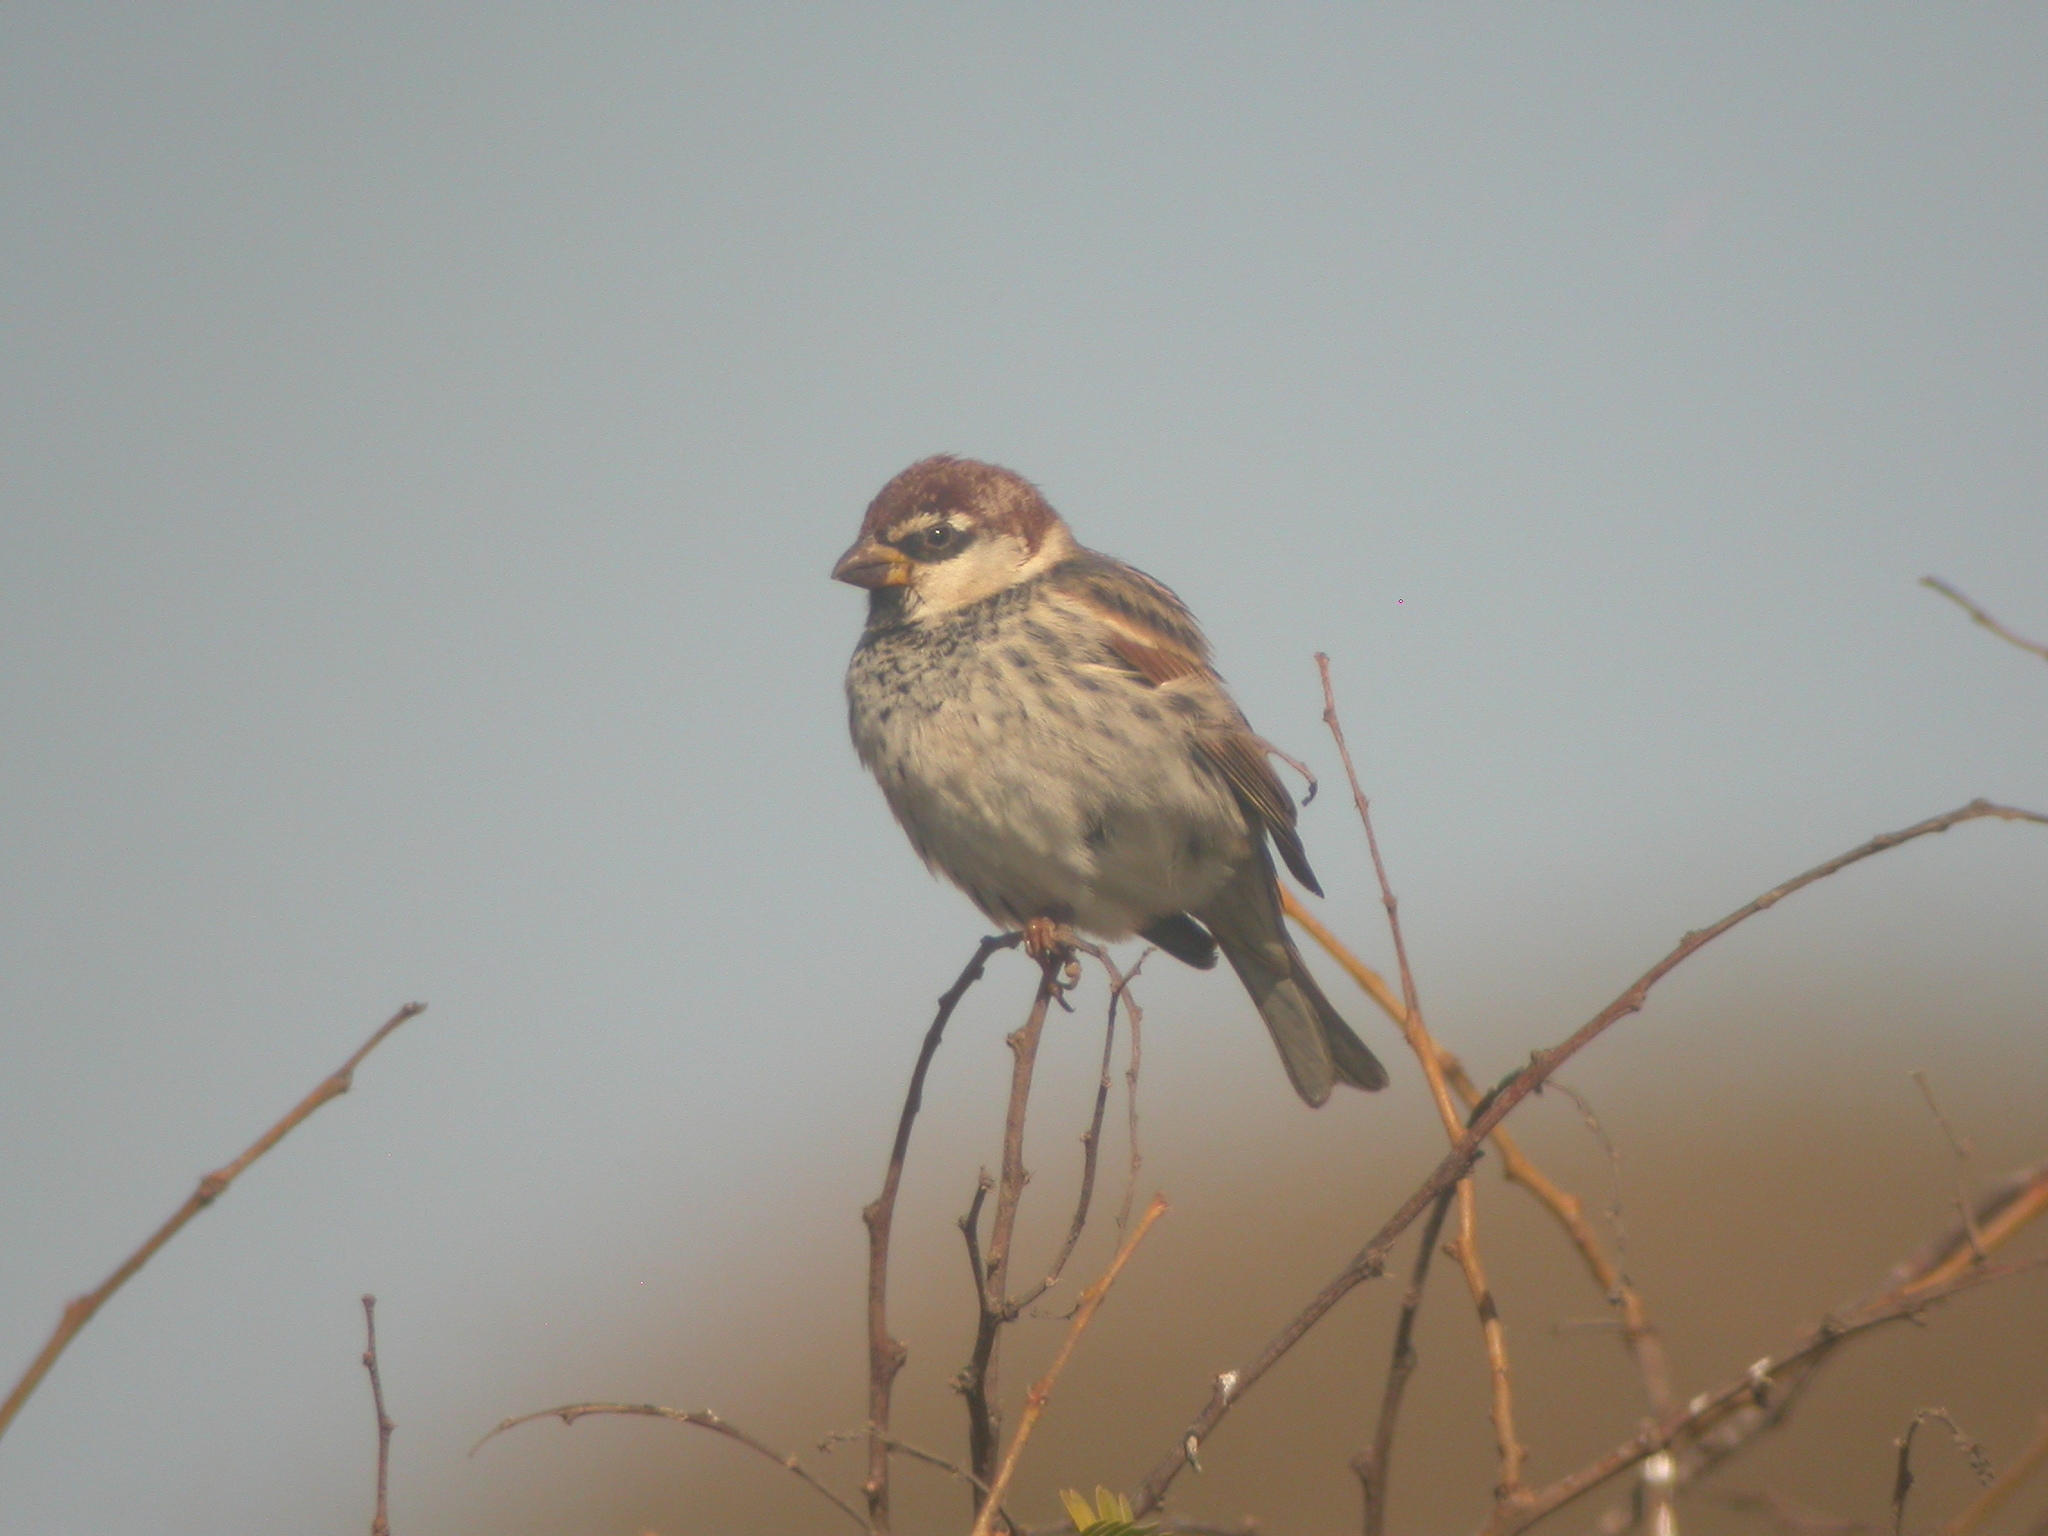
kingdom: Animalia
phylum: Chordata
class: Aves
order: Passeriformes
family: Passeridae
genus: Passer
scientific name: Passer hispaniolensis
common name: Spanish sparrow
